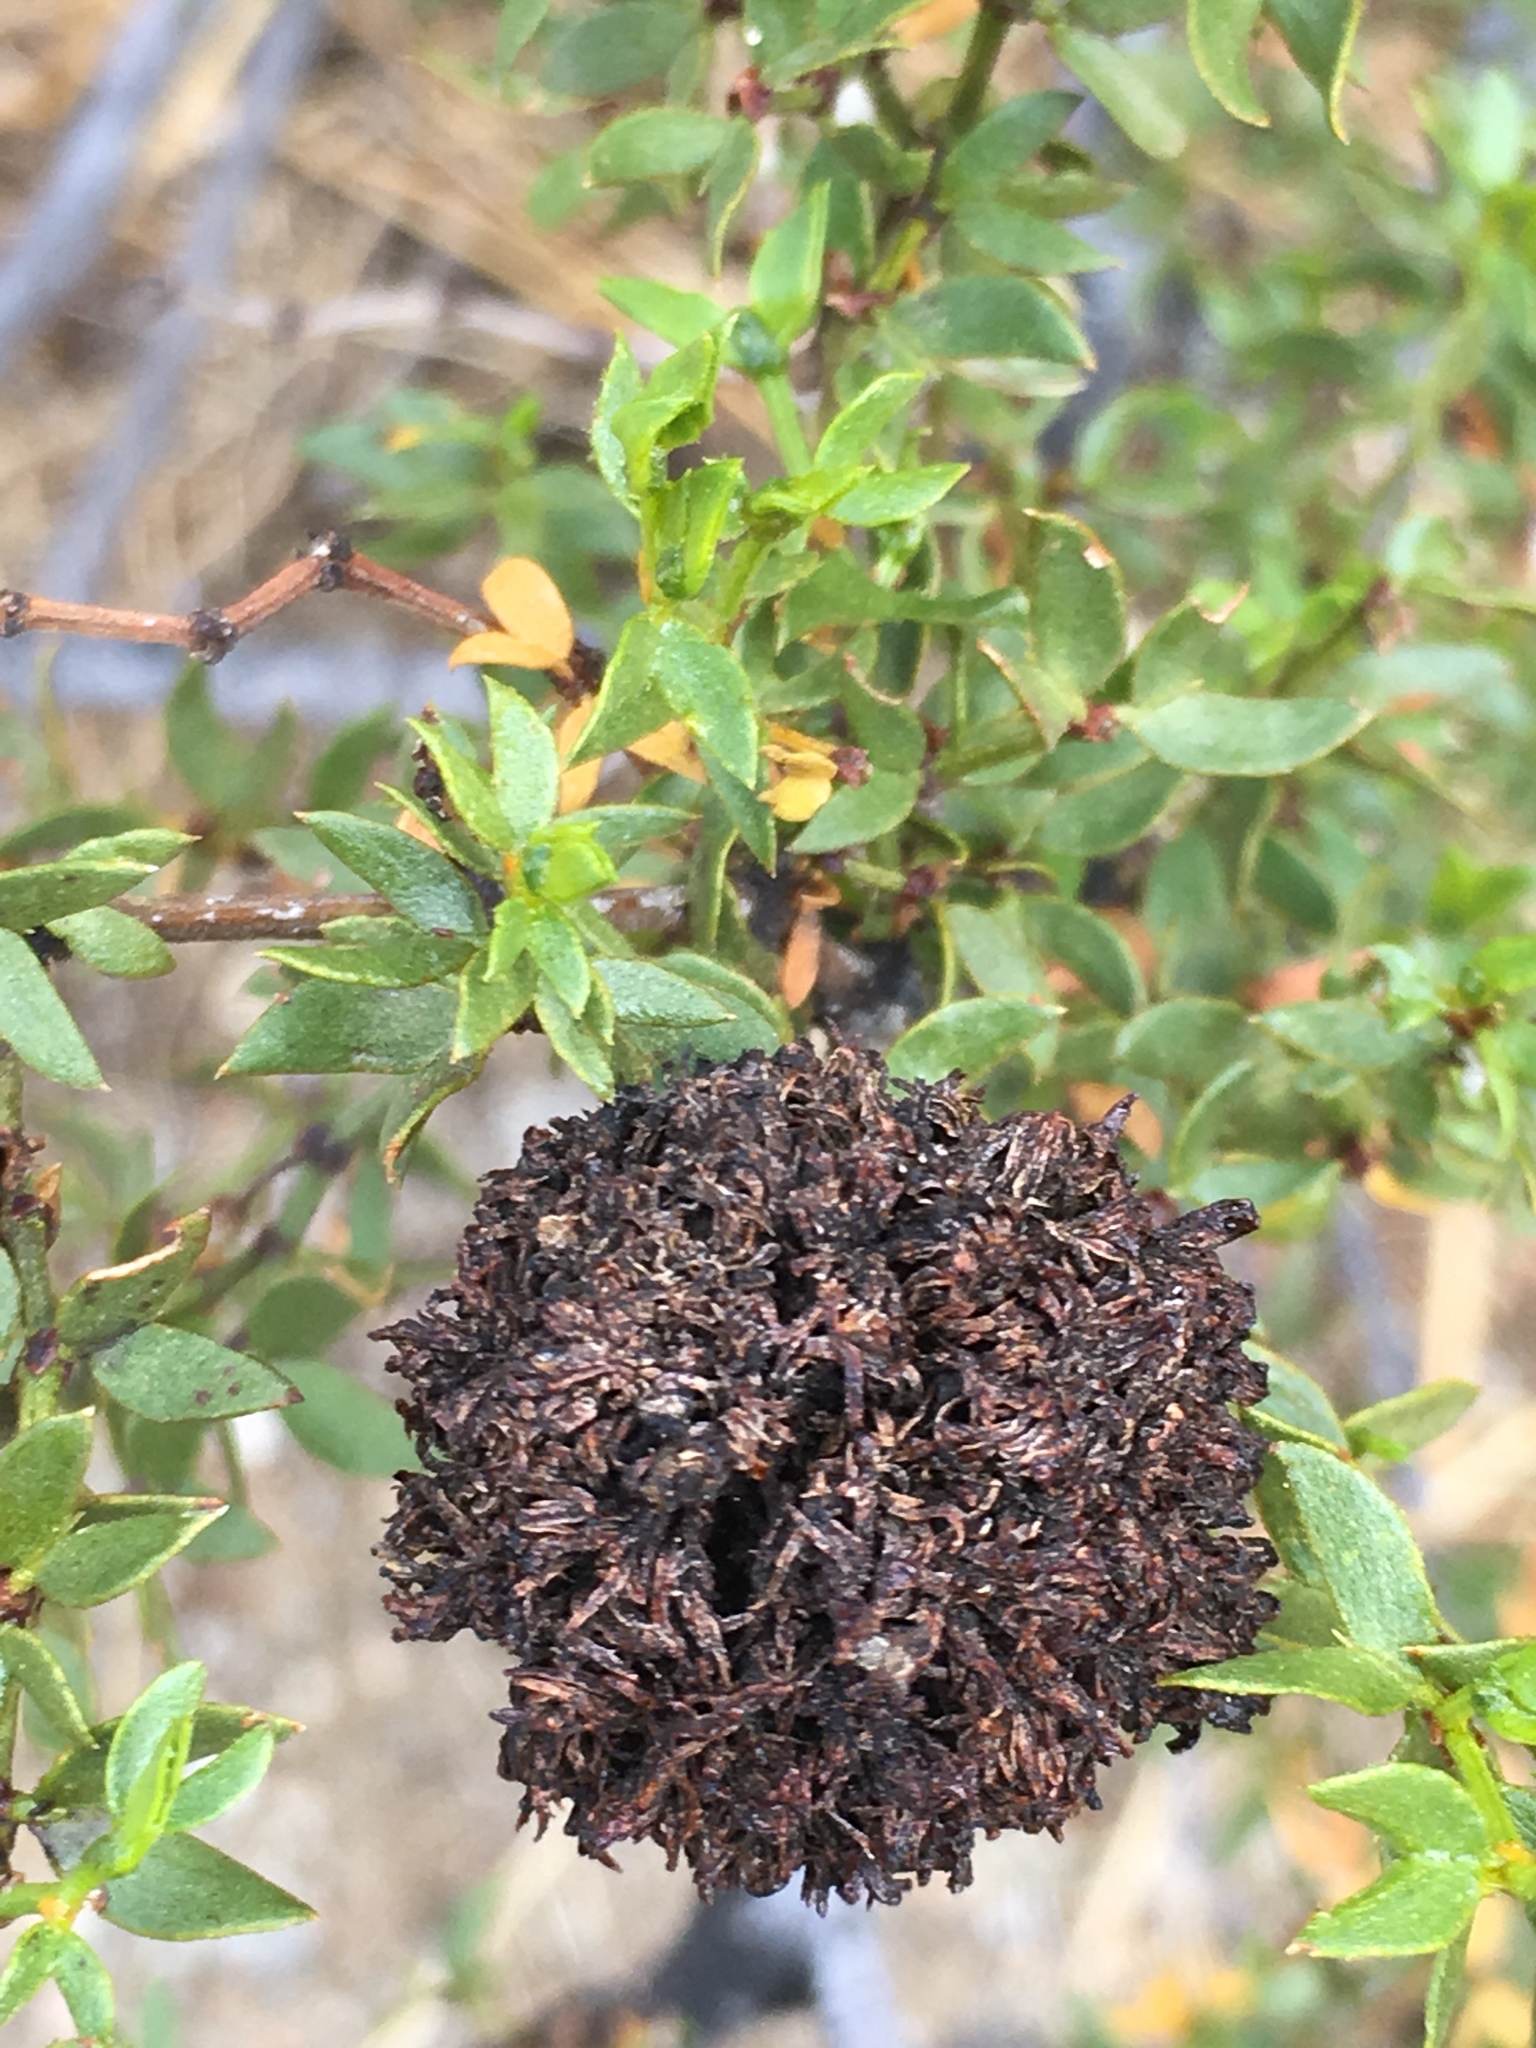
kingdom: Animalia
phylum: Arthropoda
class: Insecta
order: Diptera
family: Cecidomyiidae
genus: Asphondylia
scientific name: Asphondylia auripila
